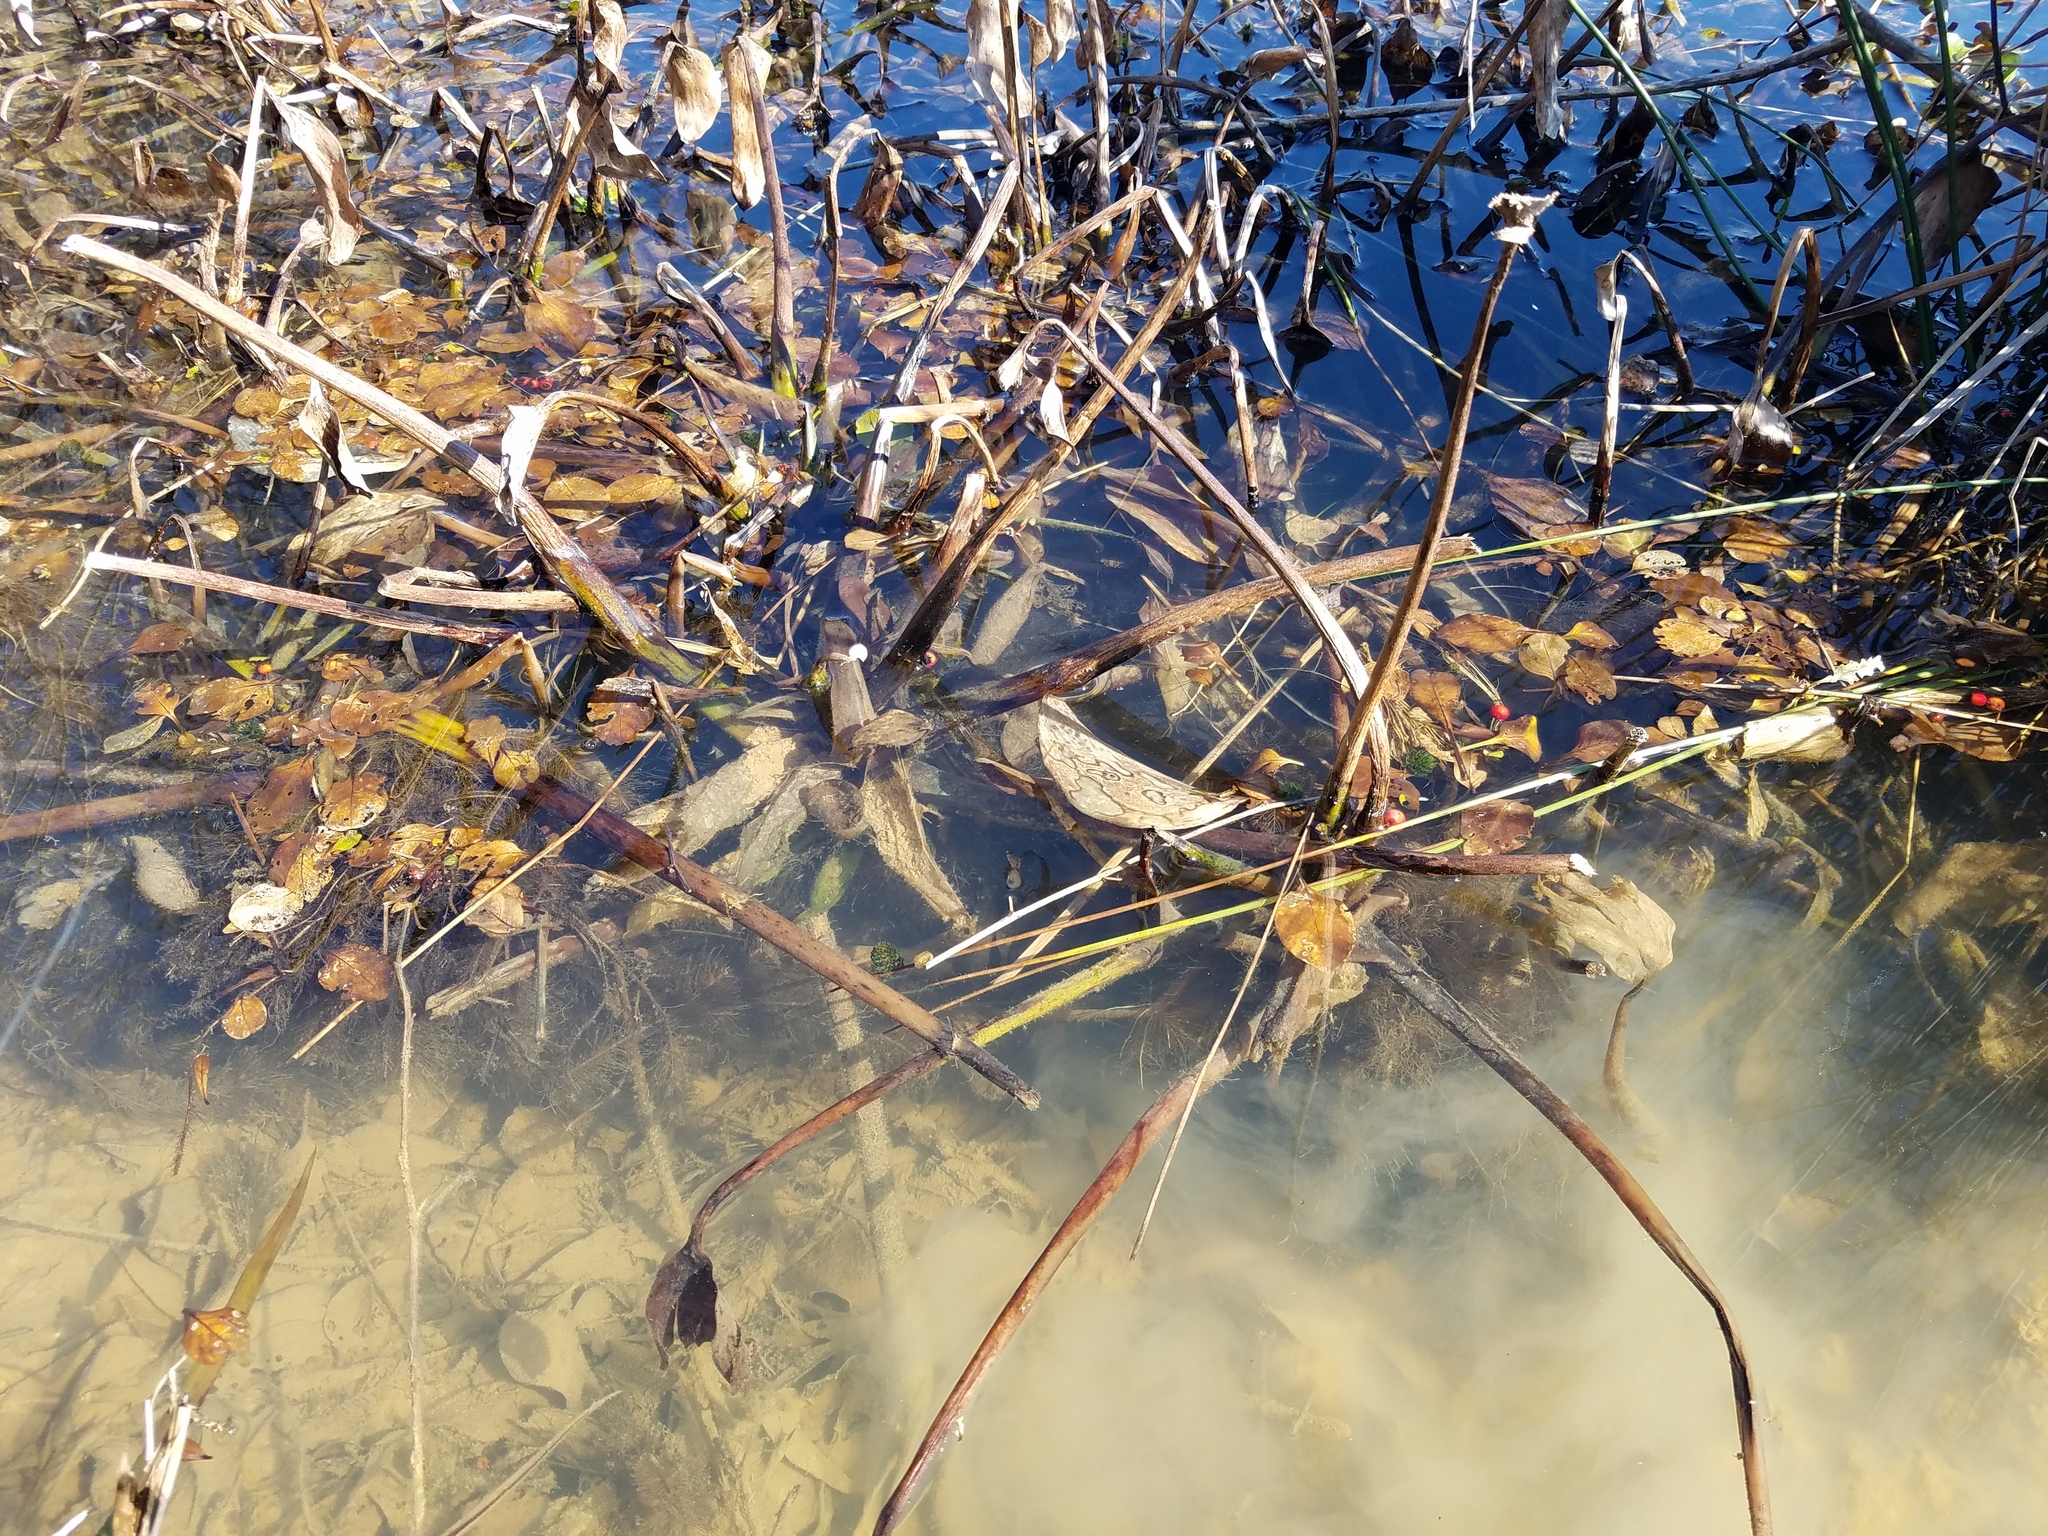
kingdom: Plantae
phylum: Tracheophyta
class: Liliopsida
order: Commelinales
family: Pontederiaceae
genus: Pontederia
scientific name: Pontederia crassipes
